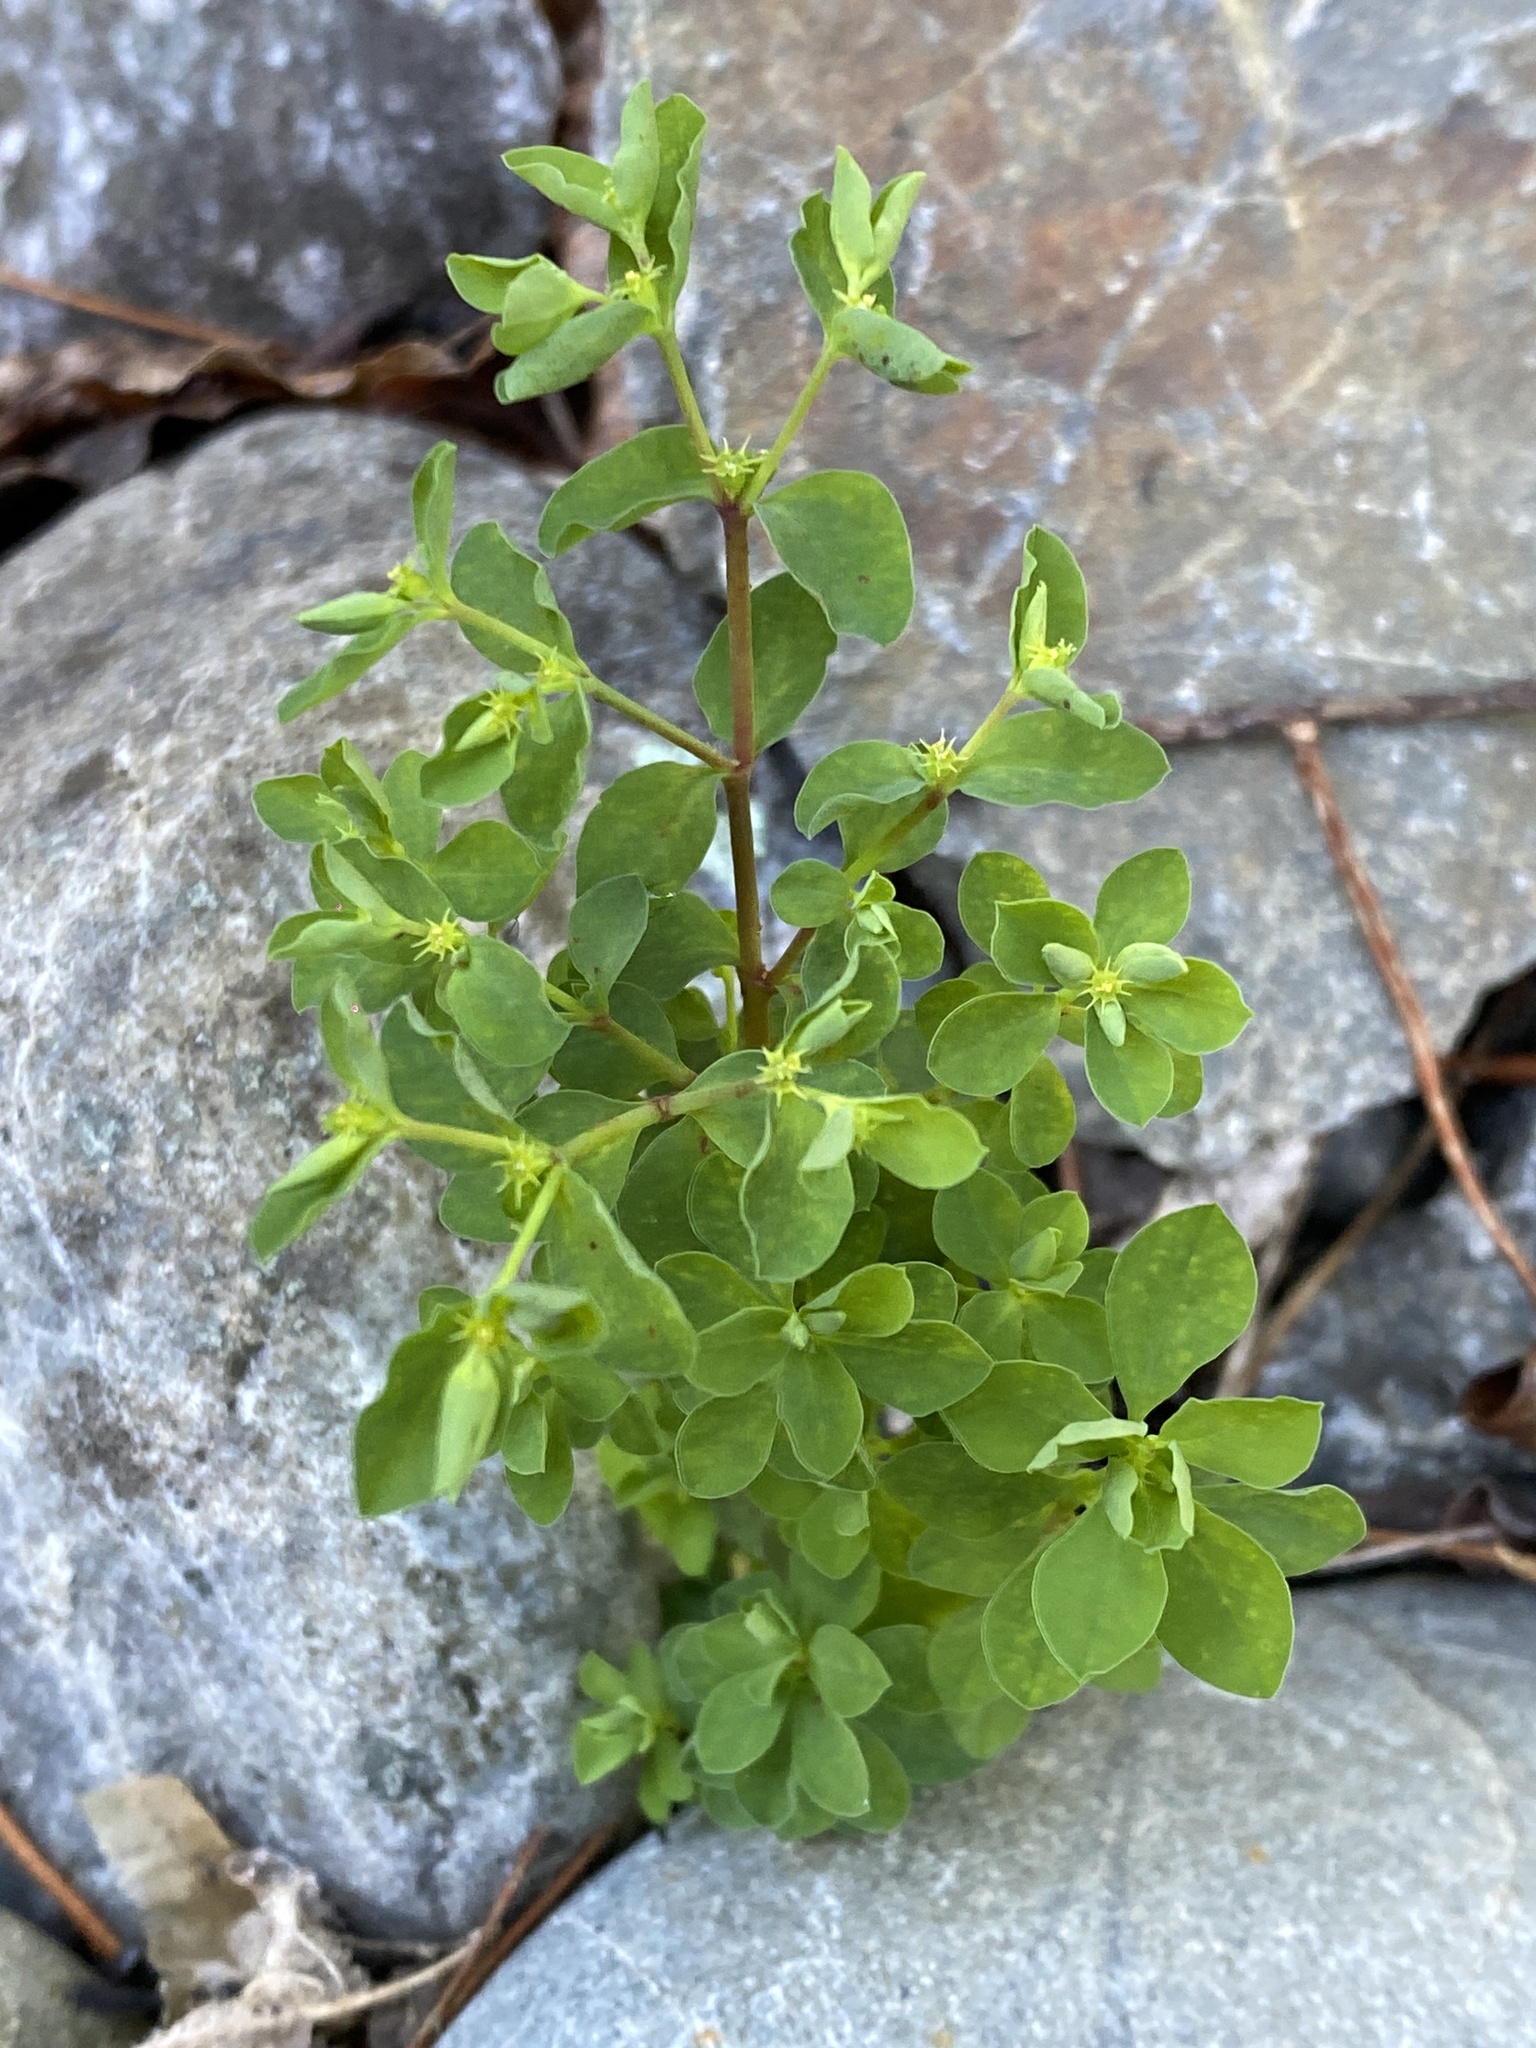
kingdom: Plantae
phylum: Tracheophyta
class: Magnoliopsida
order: Malpighiales
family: Euphorbiaceae
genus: Euphorbia
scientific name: Euphorbia peplus
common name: Petty spurge
